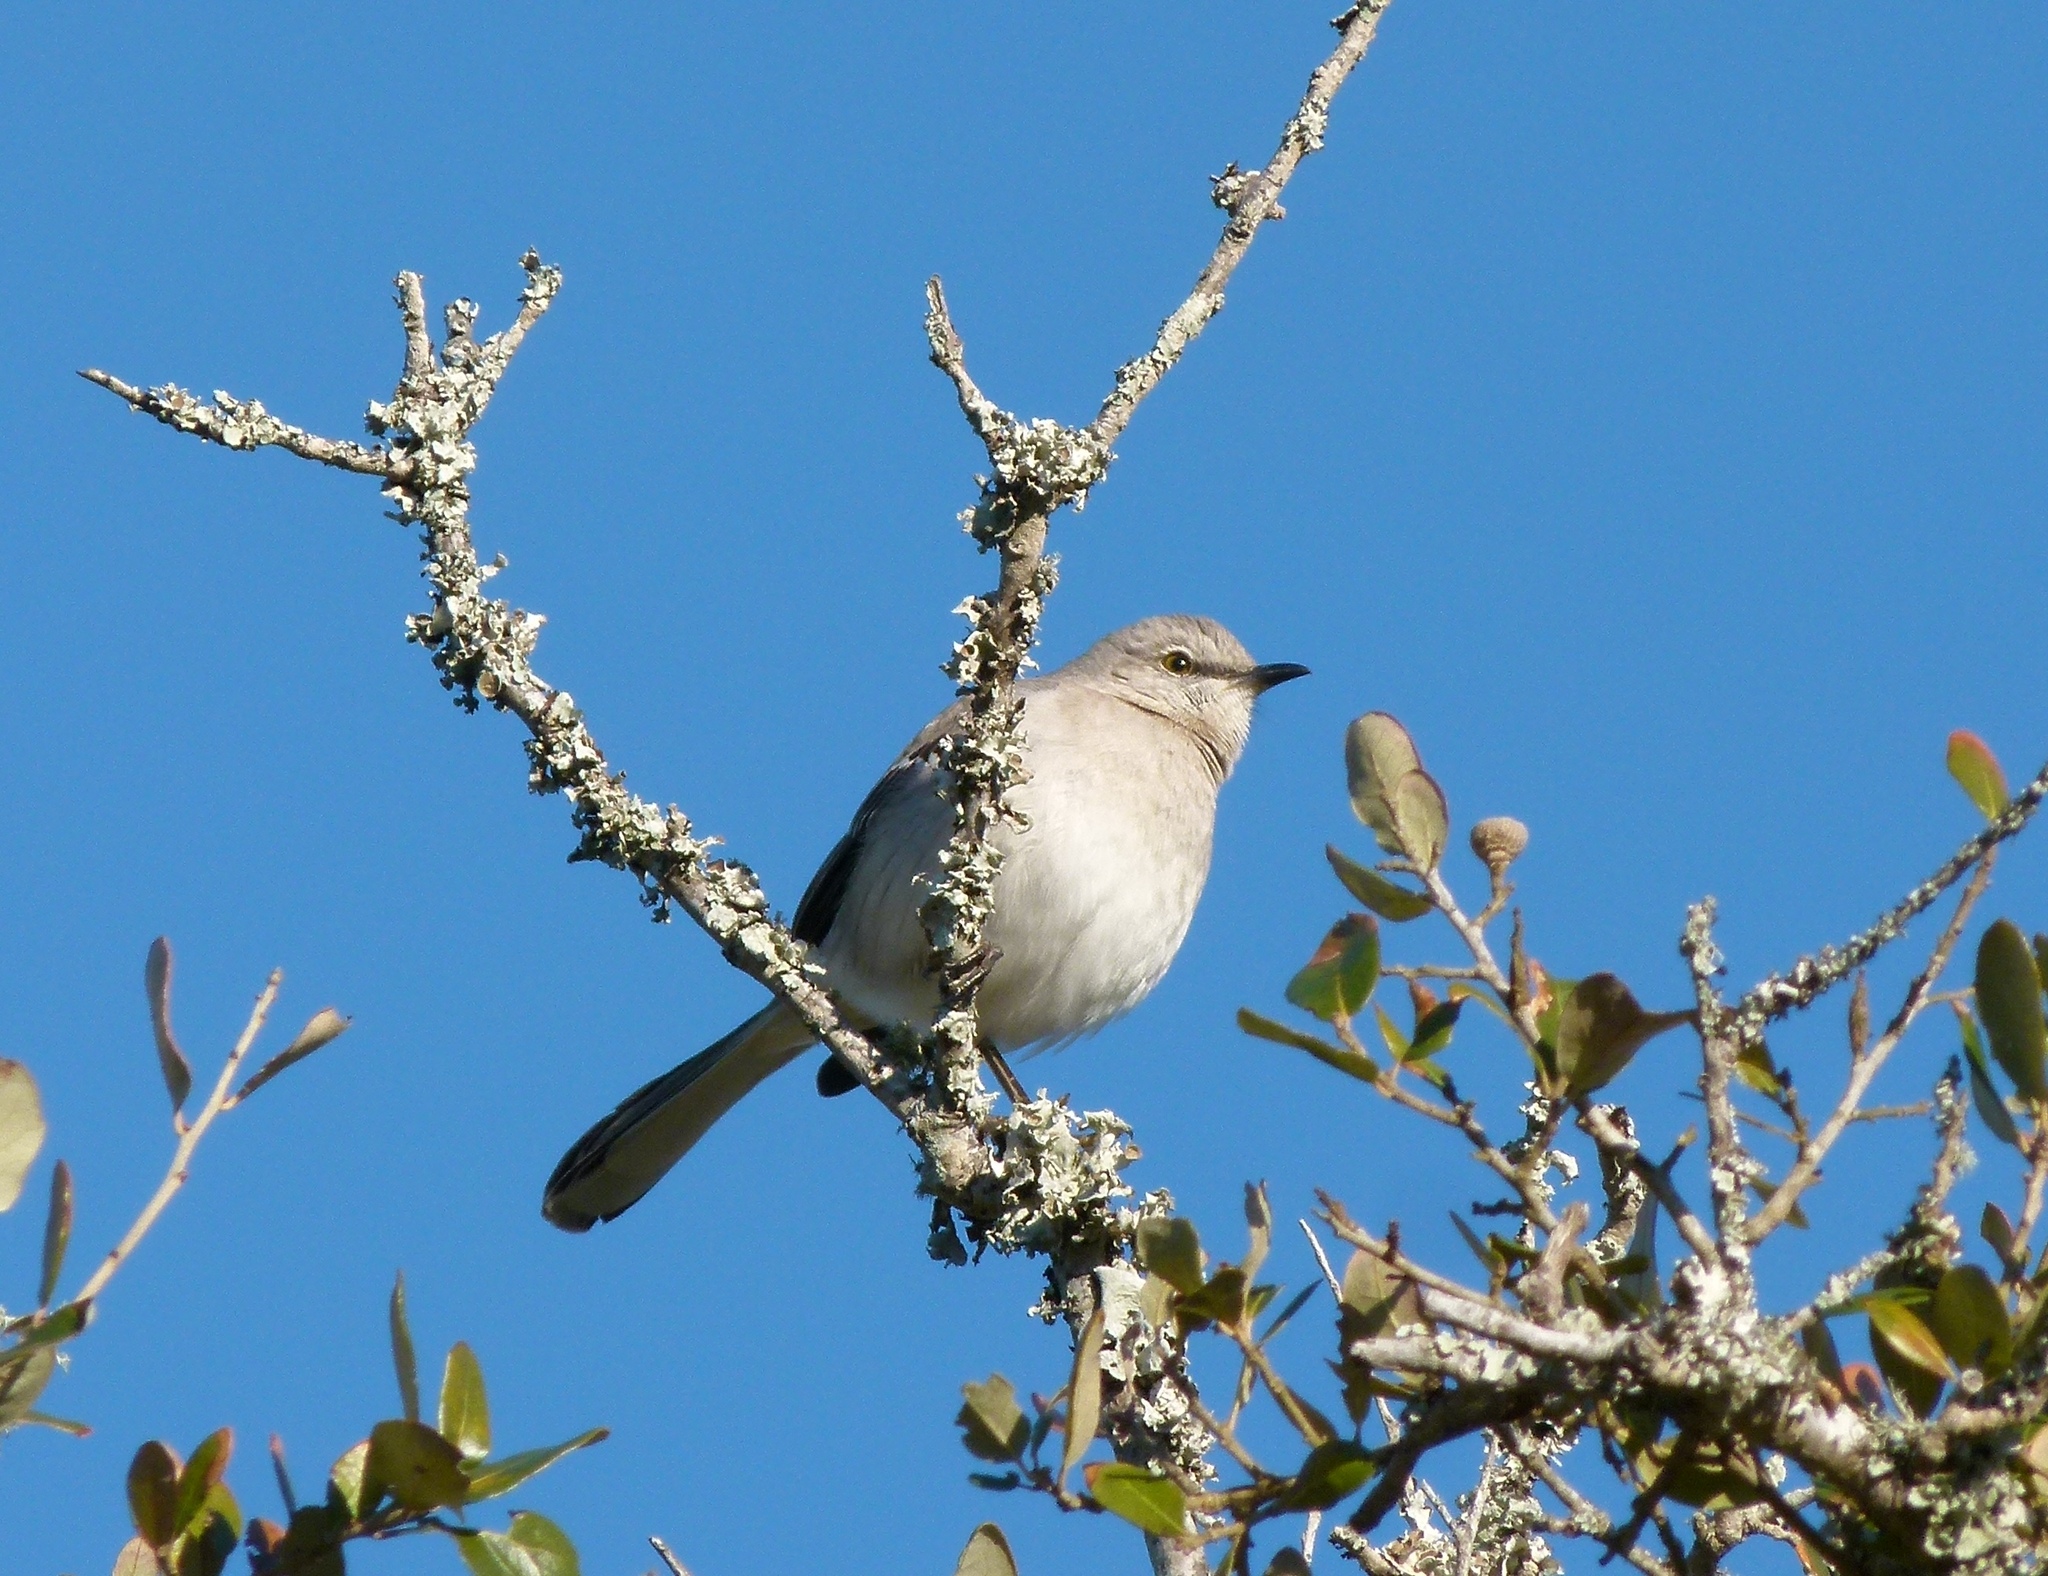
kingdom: Animalia
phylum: Chordata
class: Aves
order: Passeriformes
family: Mimidae
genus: Mimus
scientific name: Mimus polyglottos
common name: Northern mockingbird
